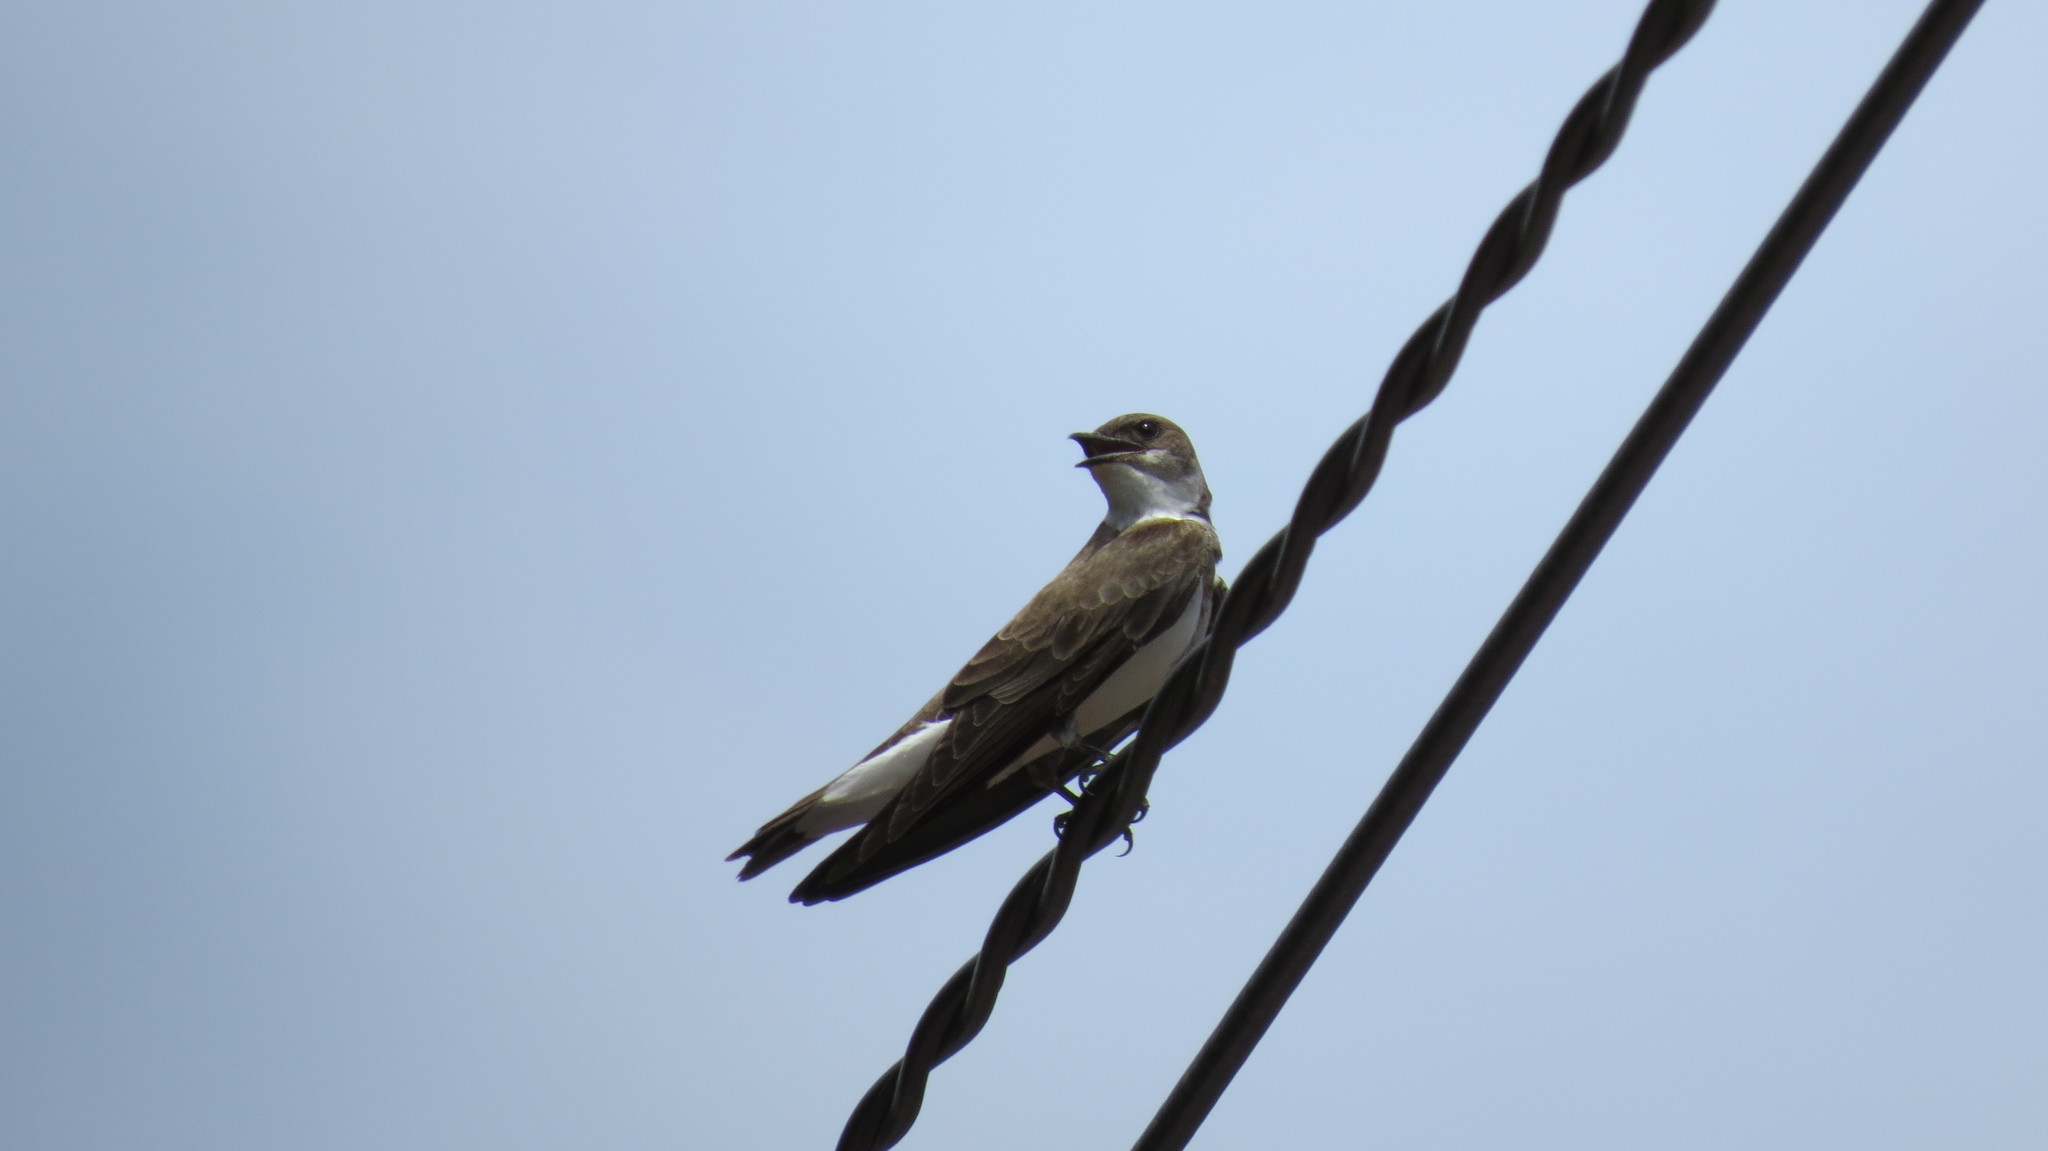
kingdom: Animalia
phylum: Chordata
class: Aves
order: Passeriformes
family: Hirundinidae
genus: Progne
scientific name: Progne tapera
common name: Brown-chested martin
